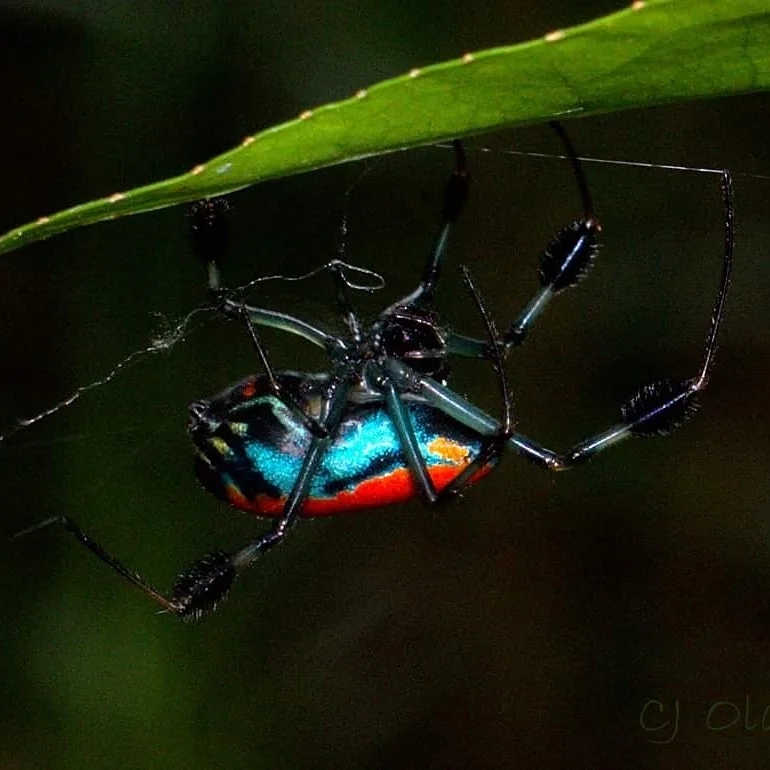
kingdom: Animalia
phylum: Arthropoda
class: Arachnida
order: Araneae
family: Tetragnathidae
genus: Leucauge
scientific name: Leucauge sarawakensis
